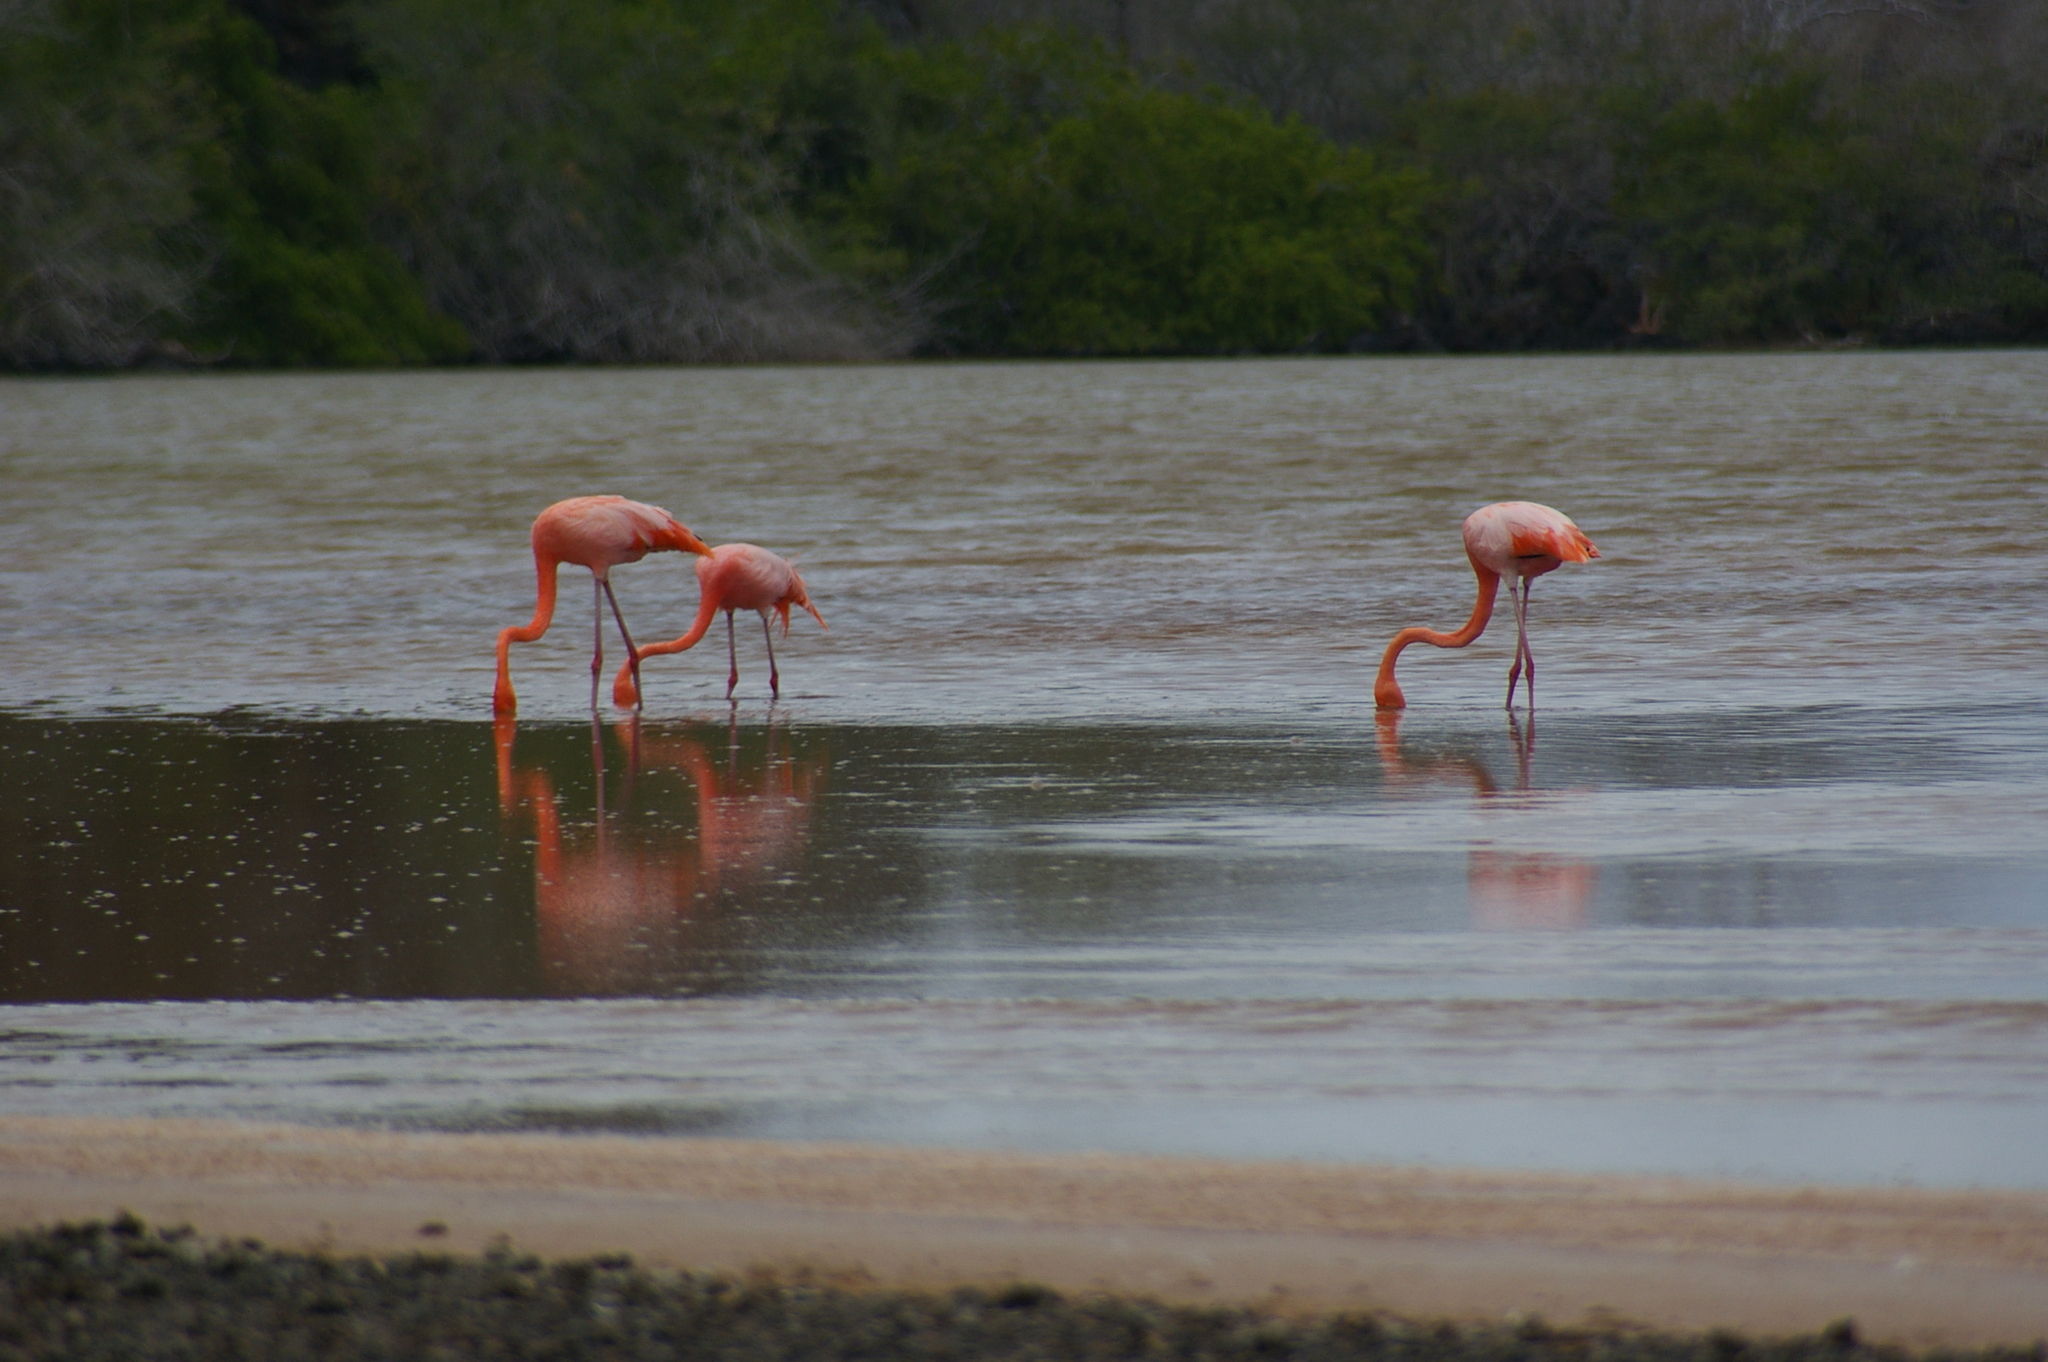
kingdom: Animalia
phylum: Chordata
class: Aves
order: Phoenicopteriformes
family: Phoenicopteridae
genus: Phoenicopterus
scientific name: Phoenicopterus ruber
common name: American flamingo
